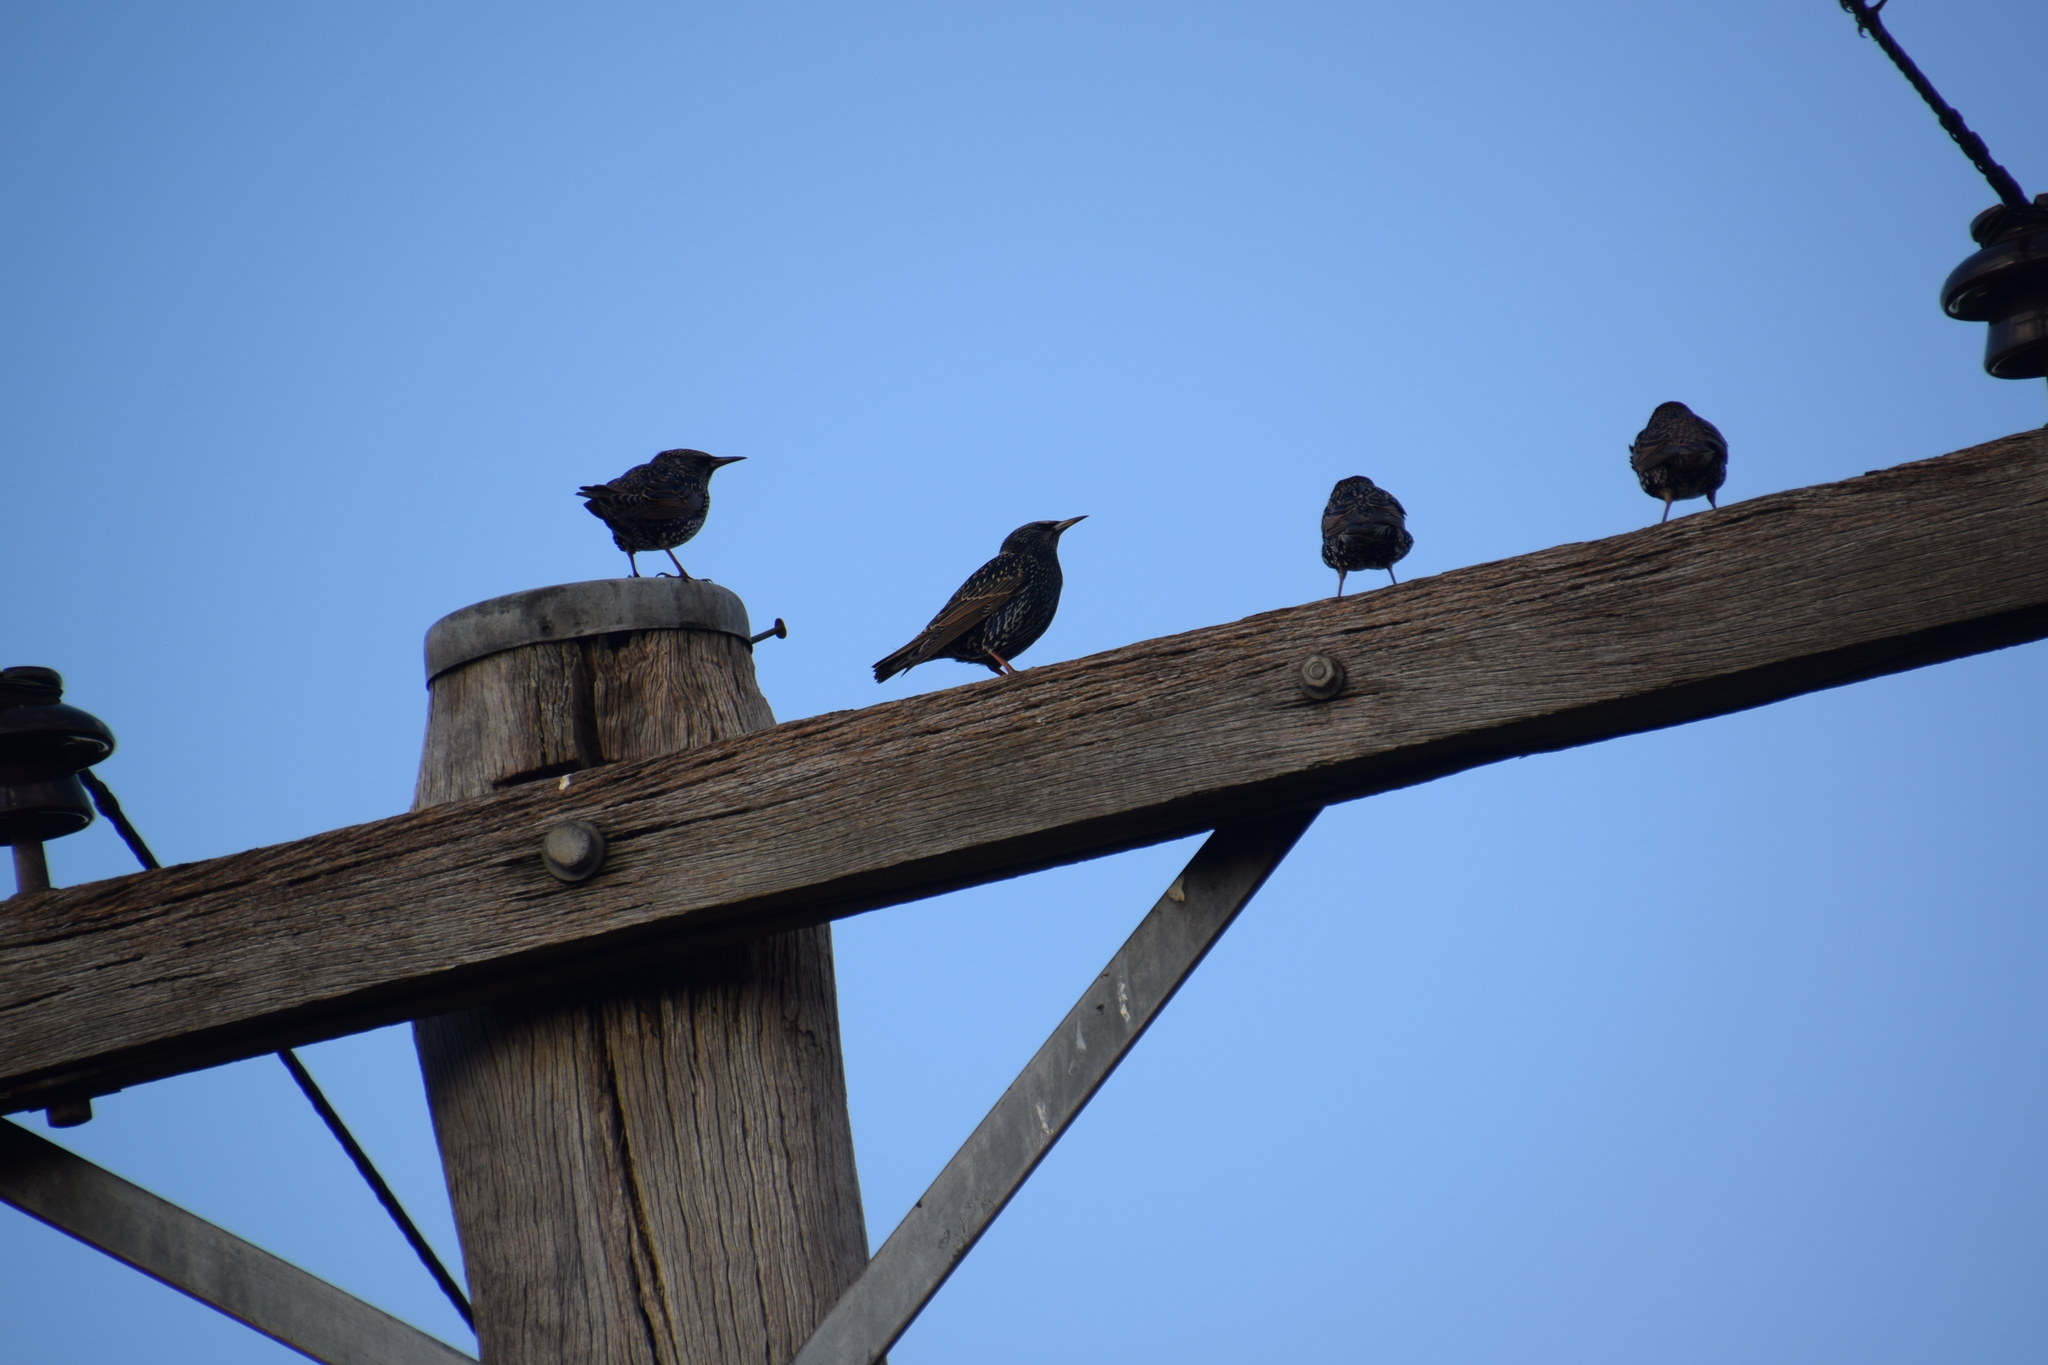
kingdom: Animalia
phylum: Chordata
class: Aves
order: Passeriformes
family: Sturnidae
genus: Sturnus
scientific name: Sturnus vulgaris
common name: Common starling
